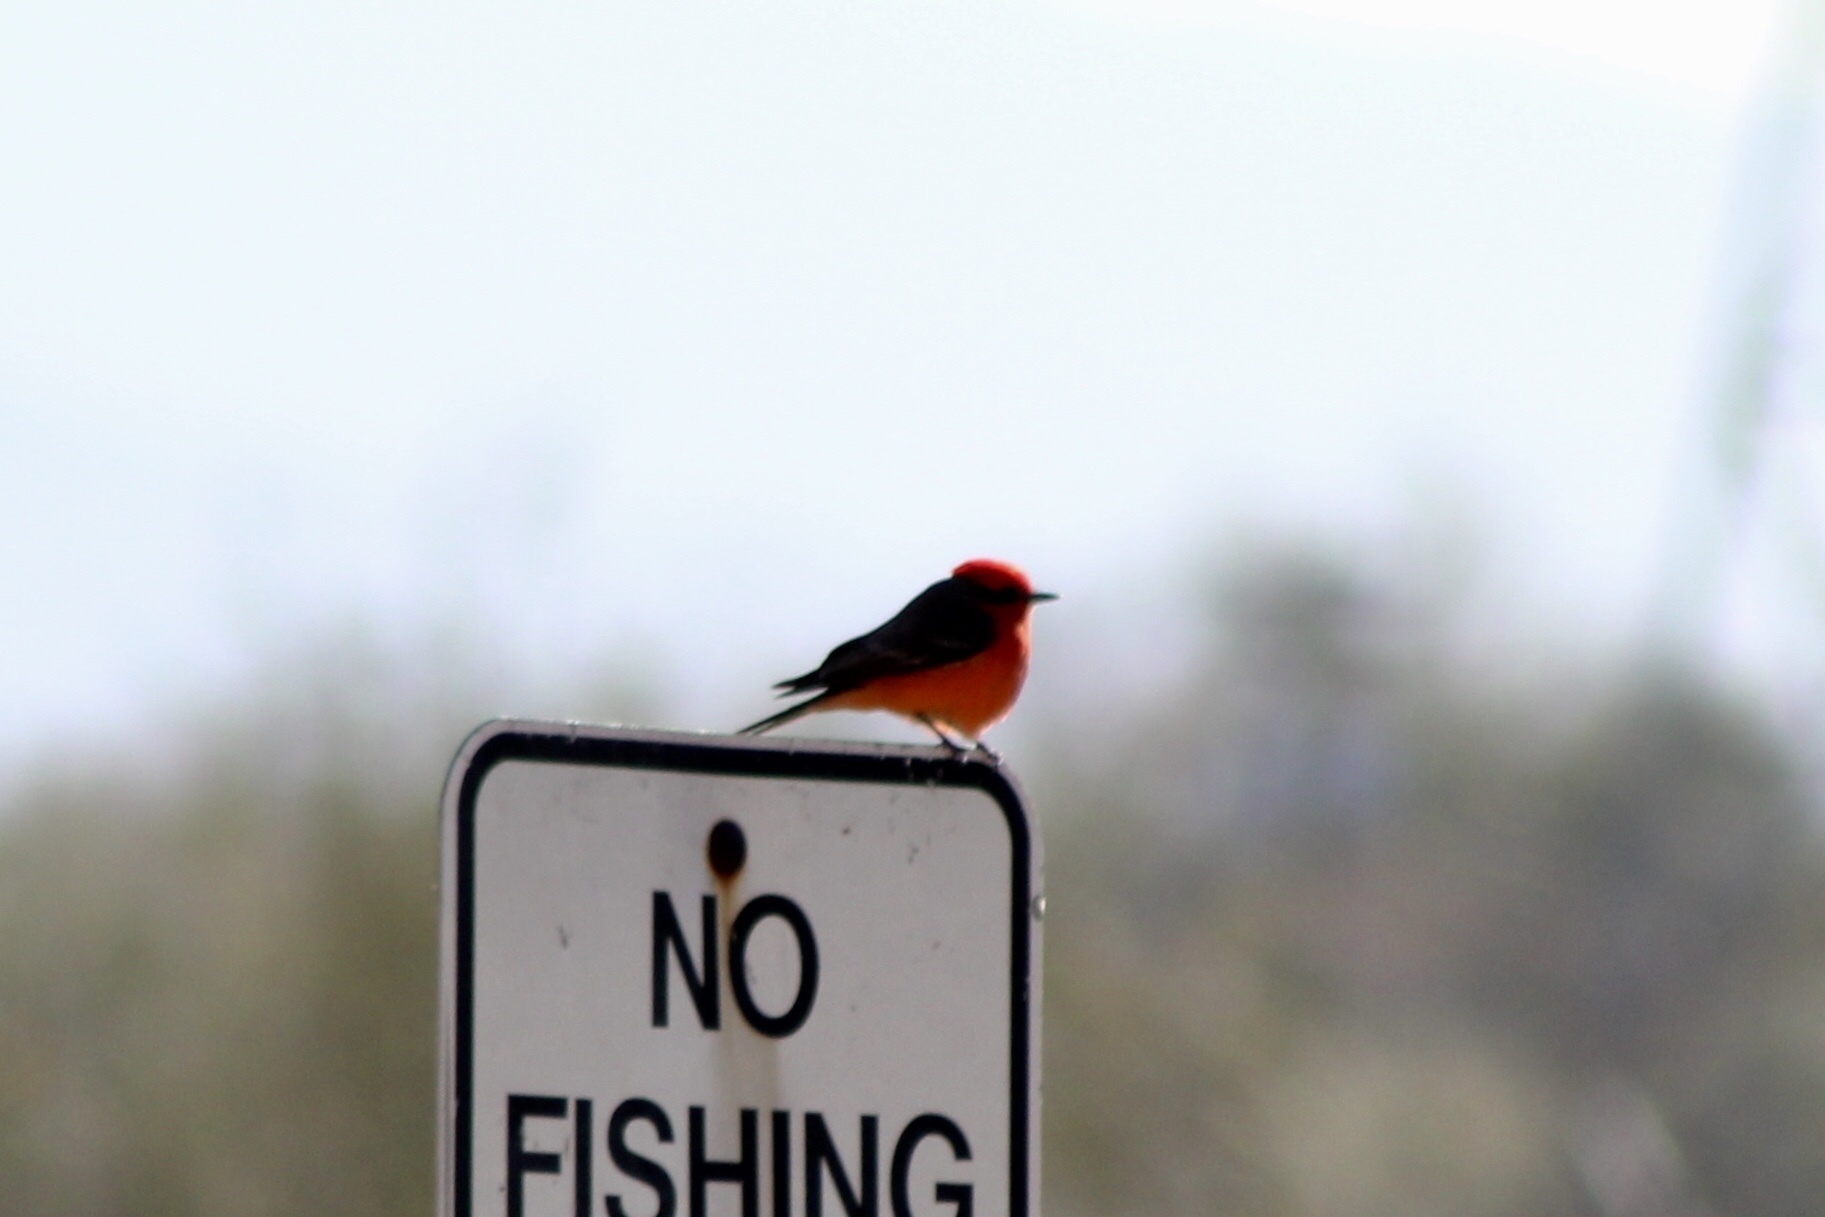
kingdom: Animalia
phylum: Chordata
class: Aves
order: Passeriformes
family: Tyrannidae
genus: Pyrocephalus
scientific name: Pyrocephalus rubinus
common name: Vermilion flycatcher
